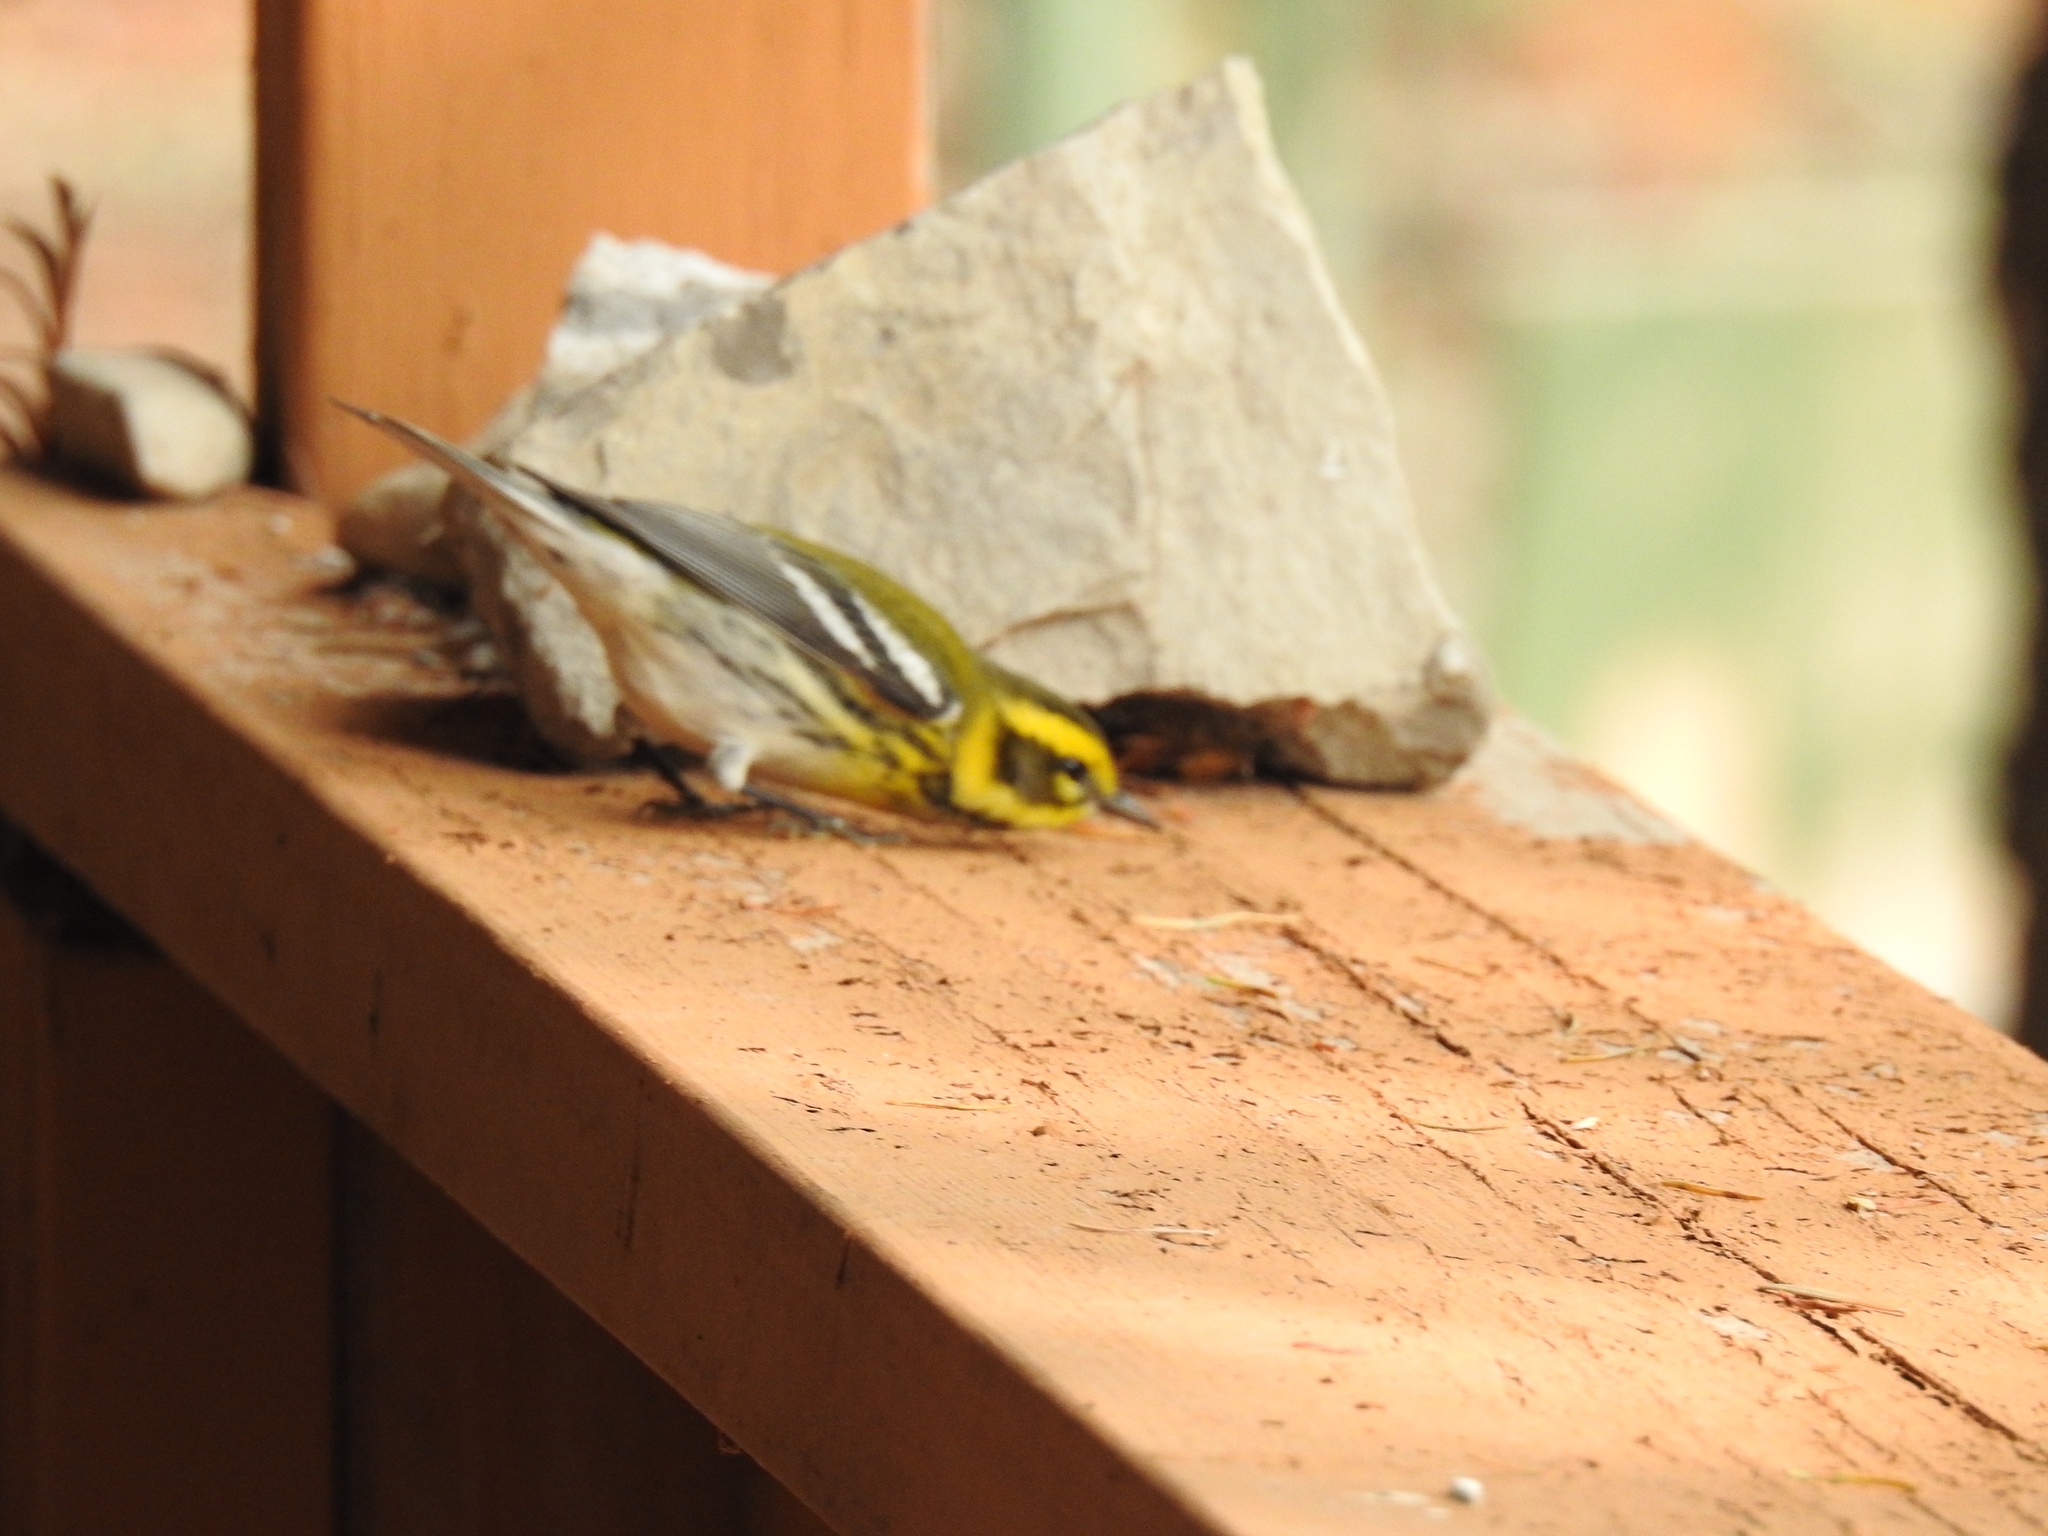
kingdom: Animalia
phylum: Chordata
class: Aves
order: Passeriformes
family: Parulidae
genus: Setophaga
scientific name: Setophaga townsendi
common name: Townsend's warbler
